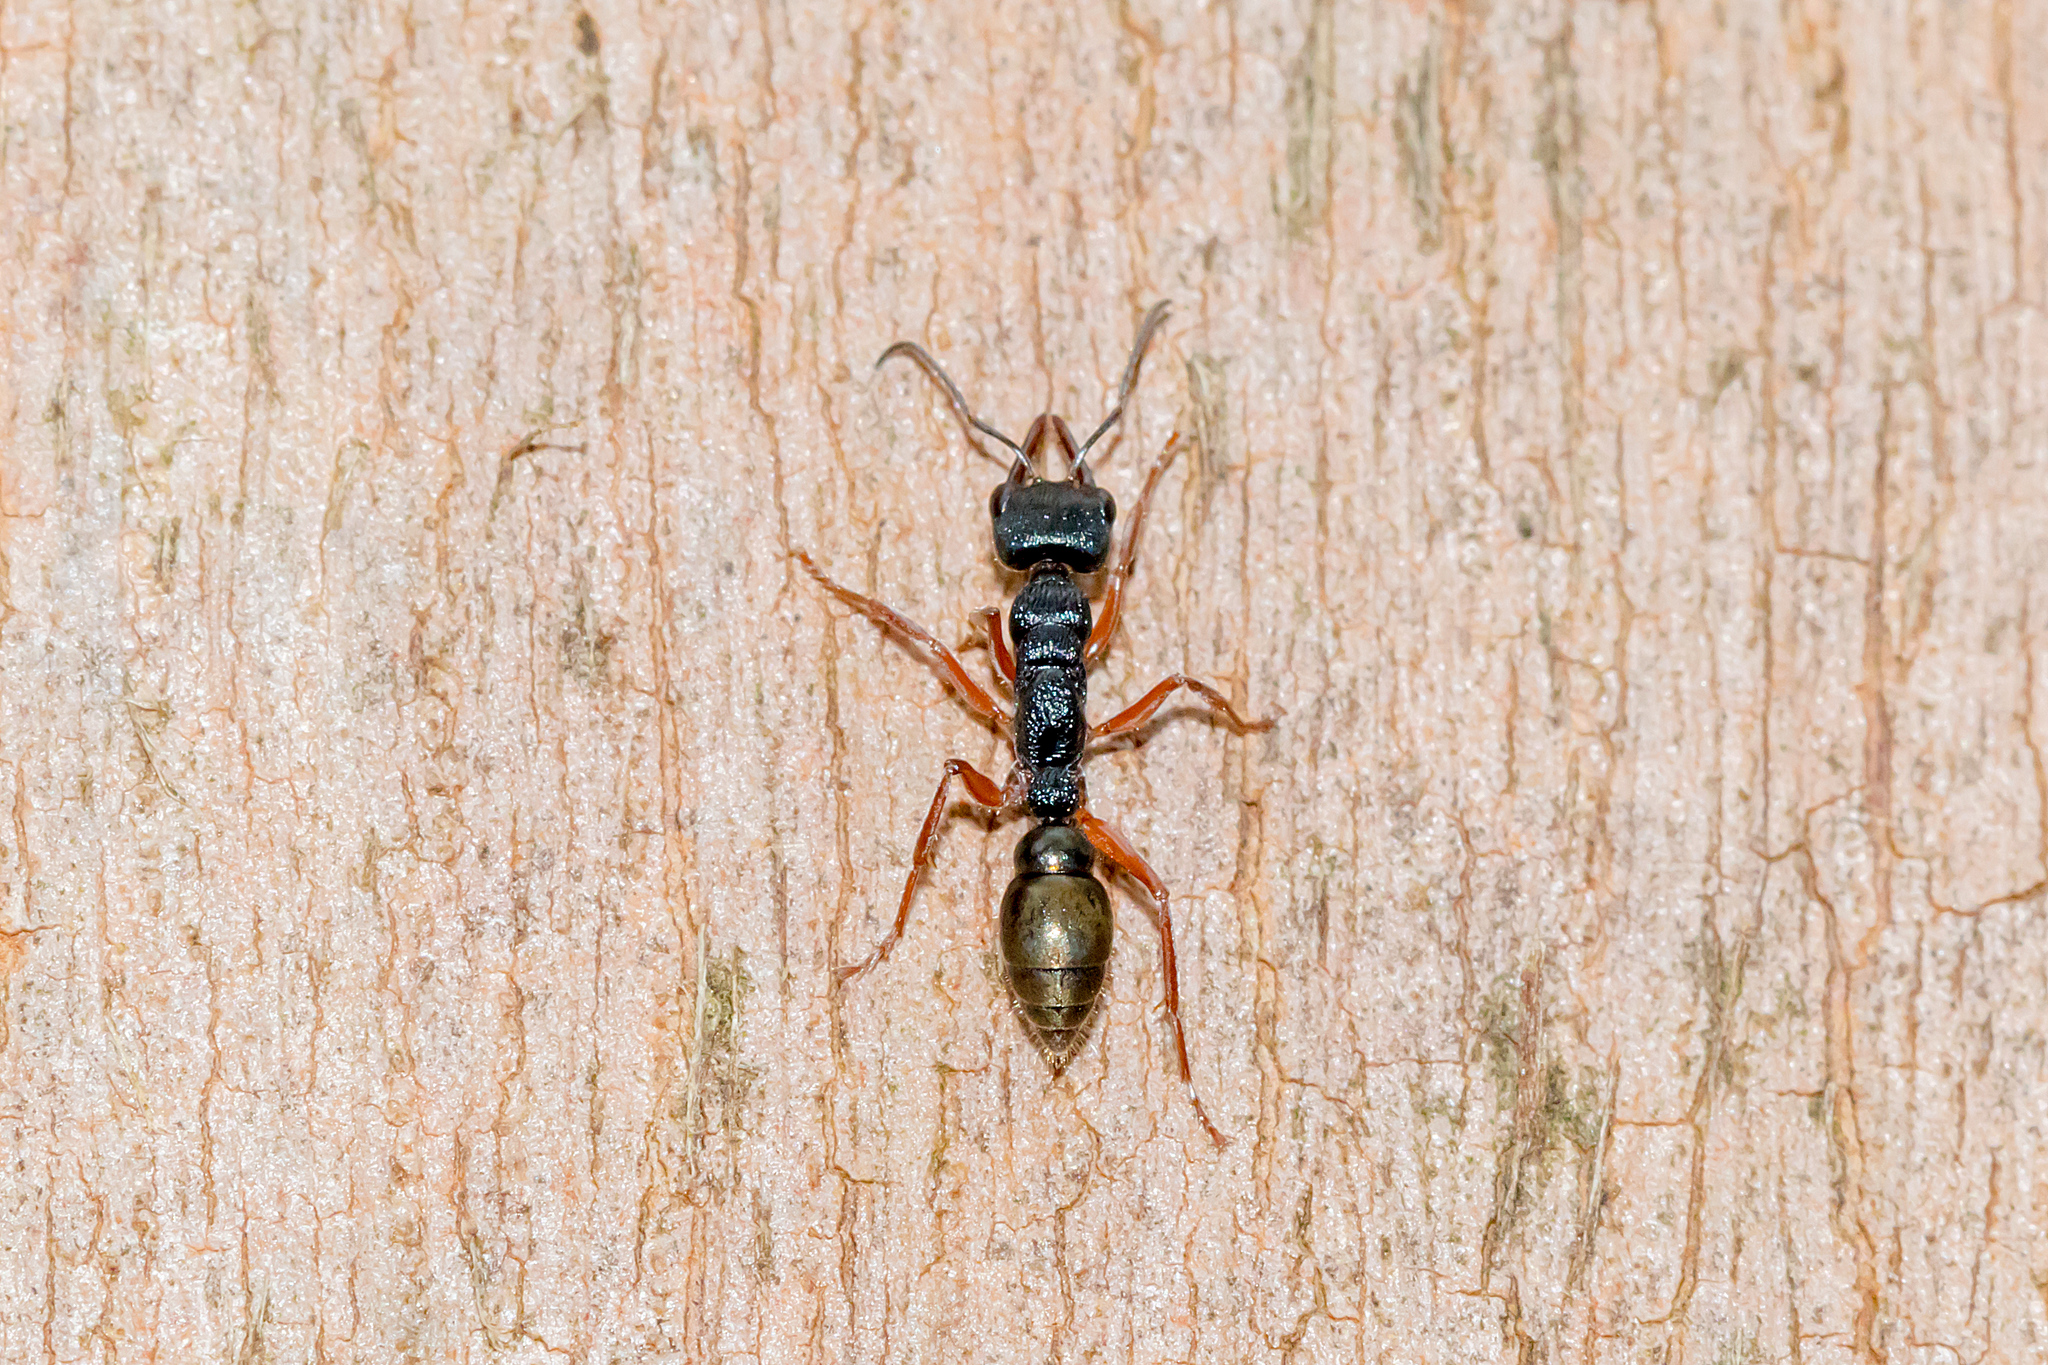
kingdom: Animalia
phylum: Arthropoda
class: Insecta
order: Hymenoptera
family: Formicidae
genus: Myrmecia
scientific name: Myrmecia fulvipes
